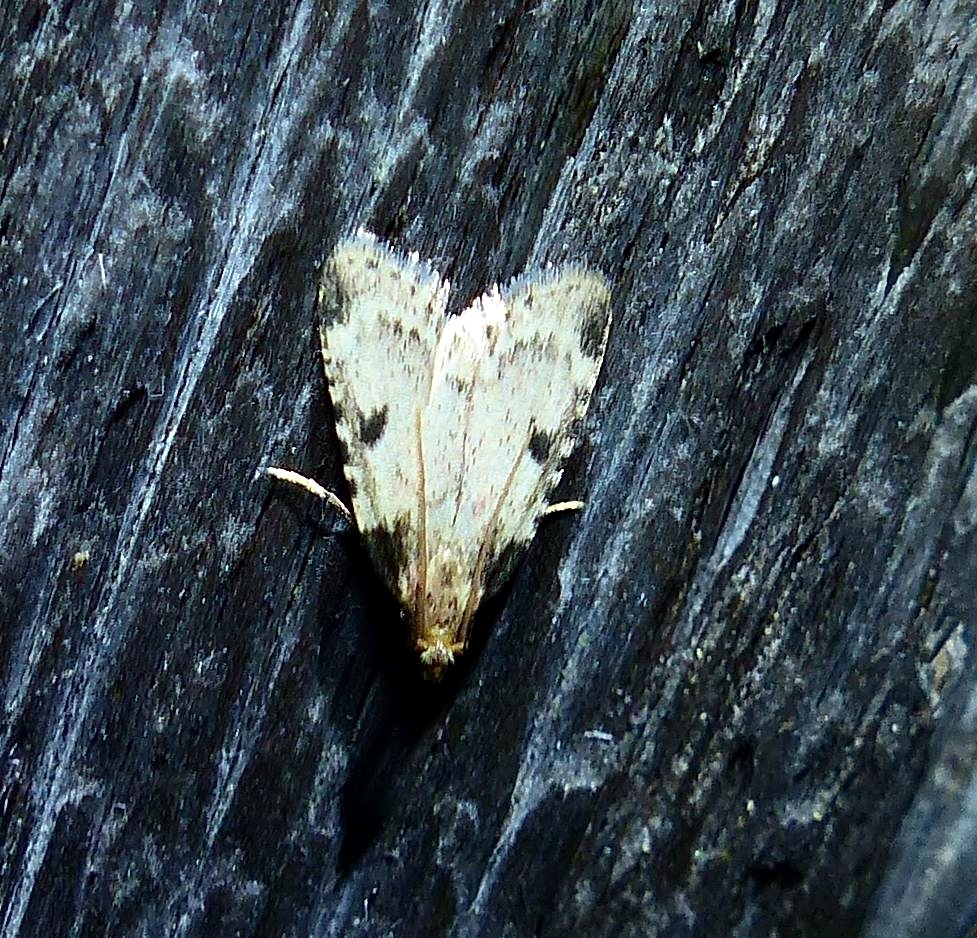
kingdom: Animalia
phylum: Arthropoda
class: Insecta
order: Lepidoptera
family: Pyralidae
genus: Aglossa
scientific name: Aglossa costiferalis
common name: Calico pyralid moth
